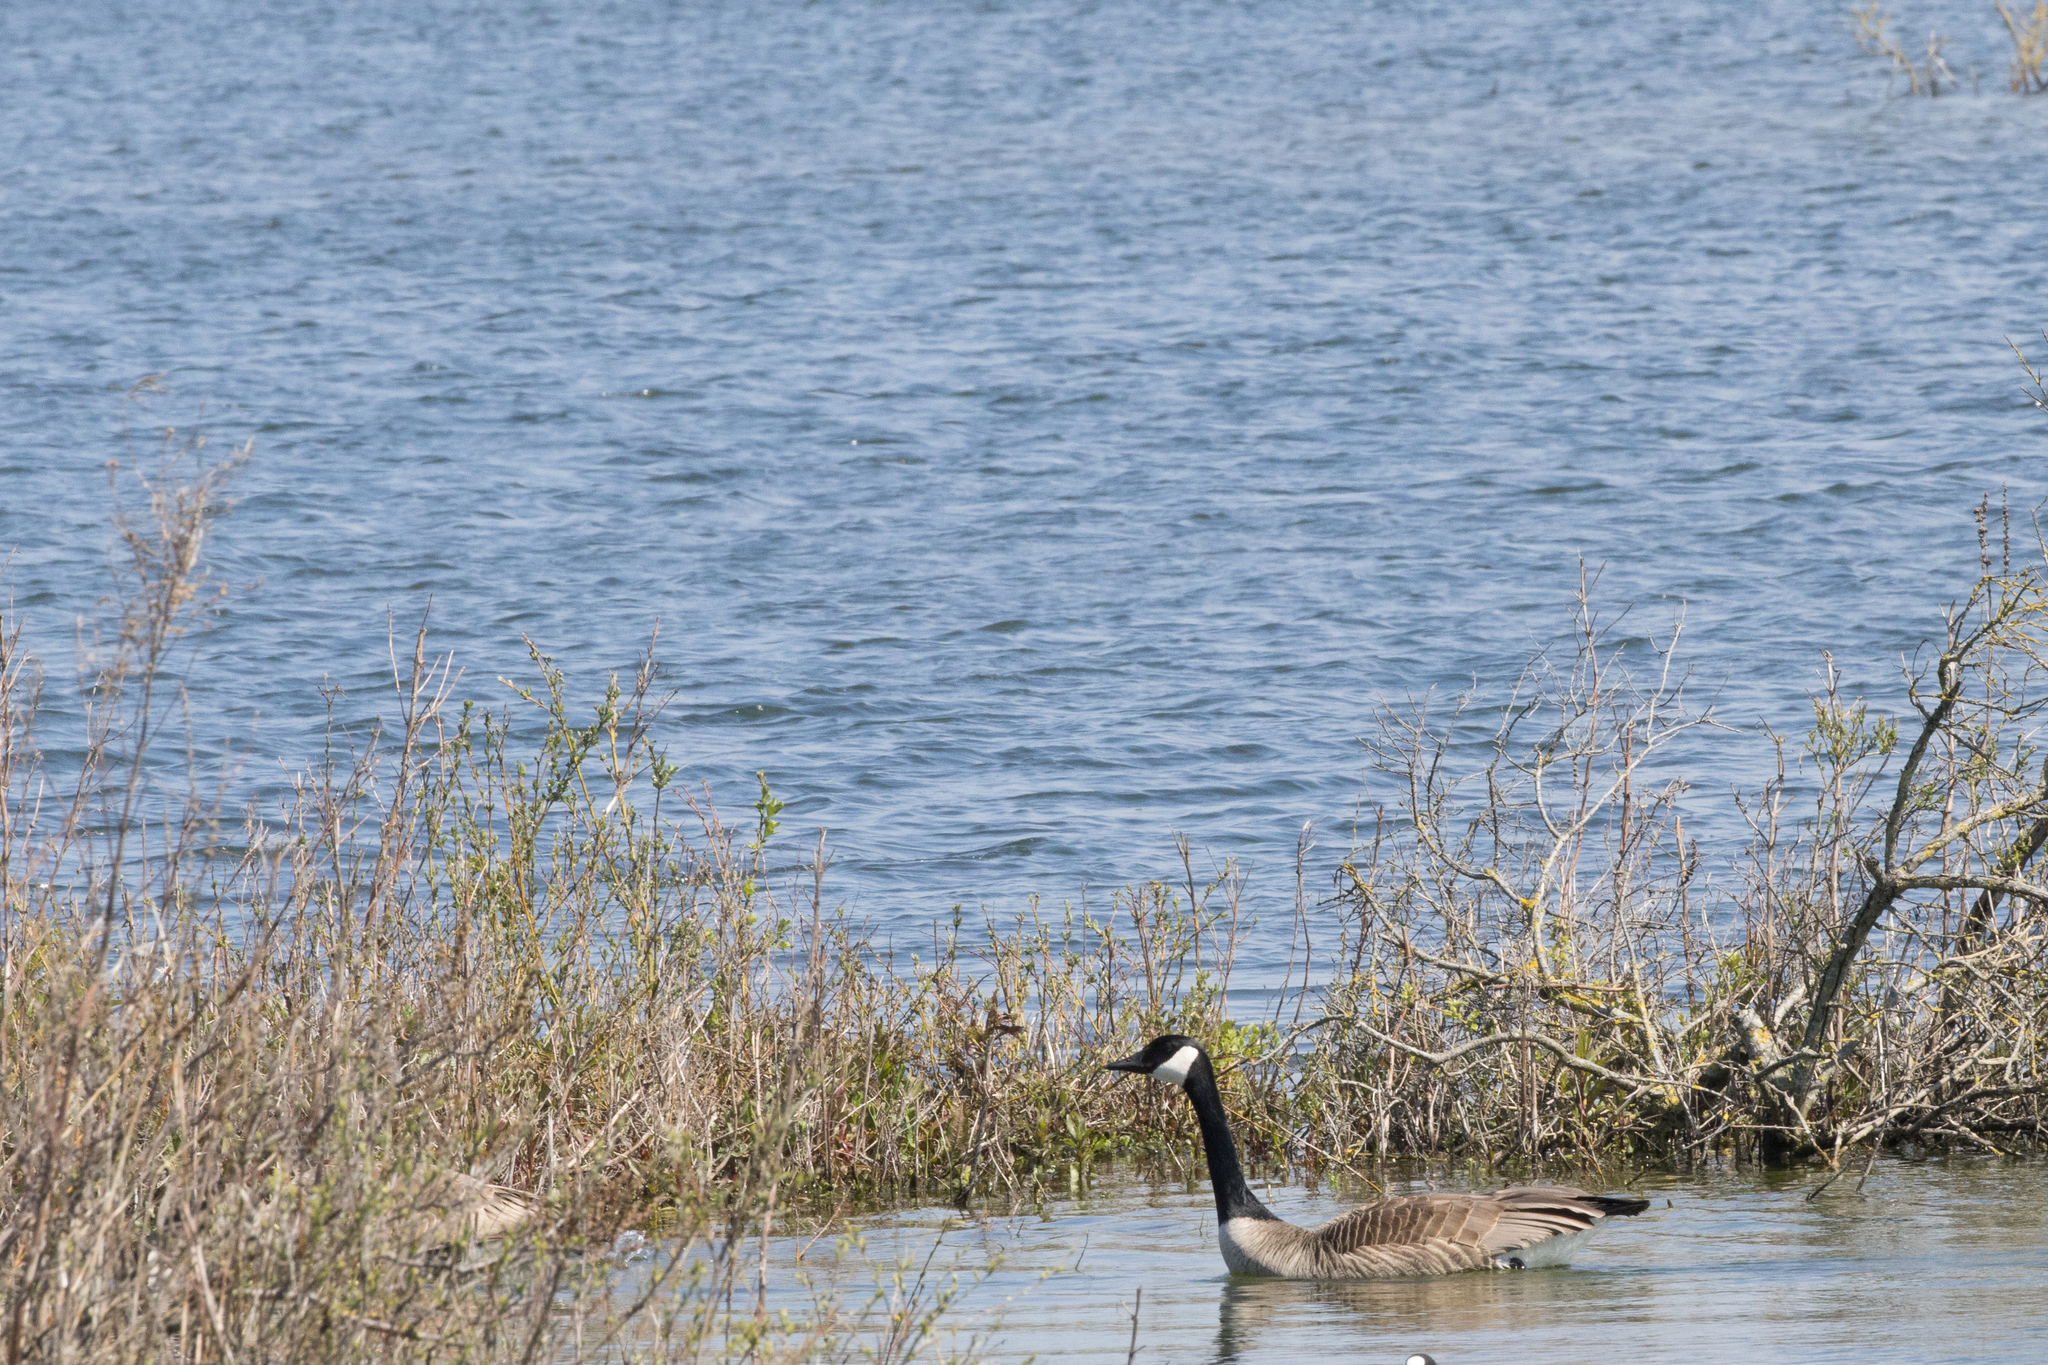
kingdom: Animalia
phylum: Chordata
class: Aves
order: Anseriformes
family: Anatidae
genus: Branta
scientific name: Branta canadensis
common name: Canada goose
